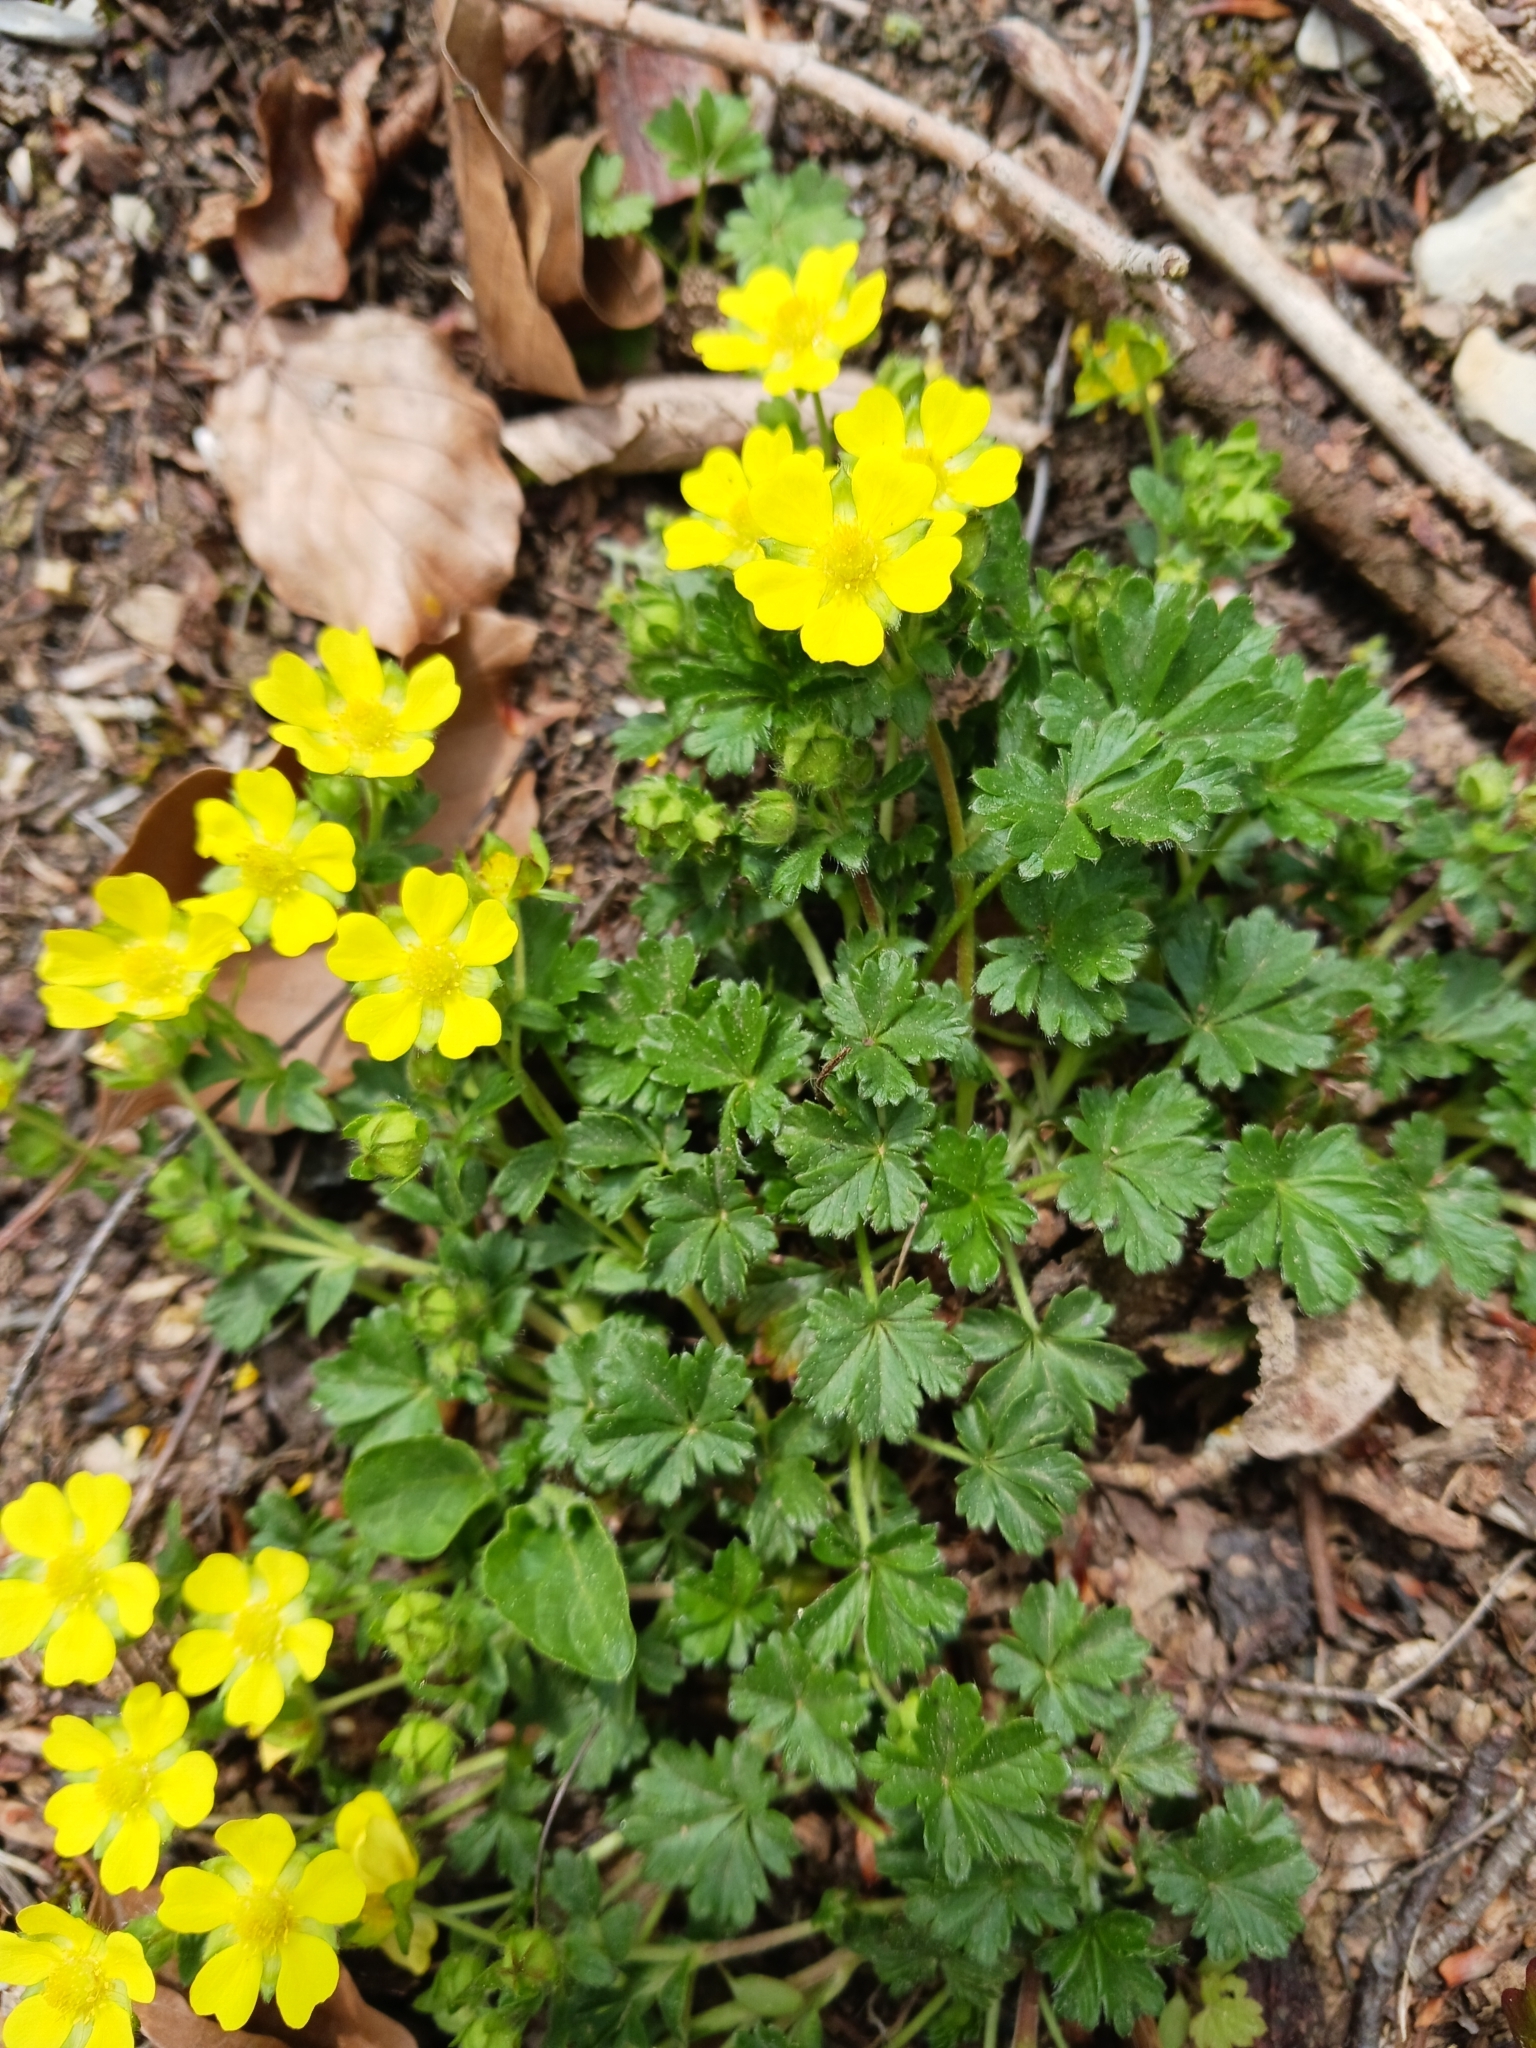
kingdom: Plantae
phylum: Tracheophyta
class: Magnoliopsida
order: Rosales
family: Rosaceae
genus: Potentilla
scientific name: Potentilla verna
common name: Spring cinquefoil
